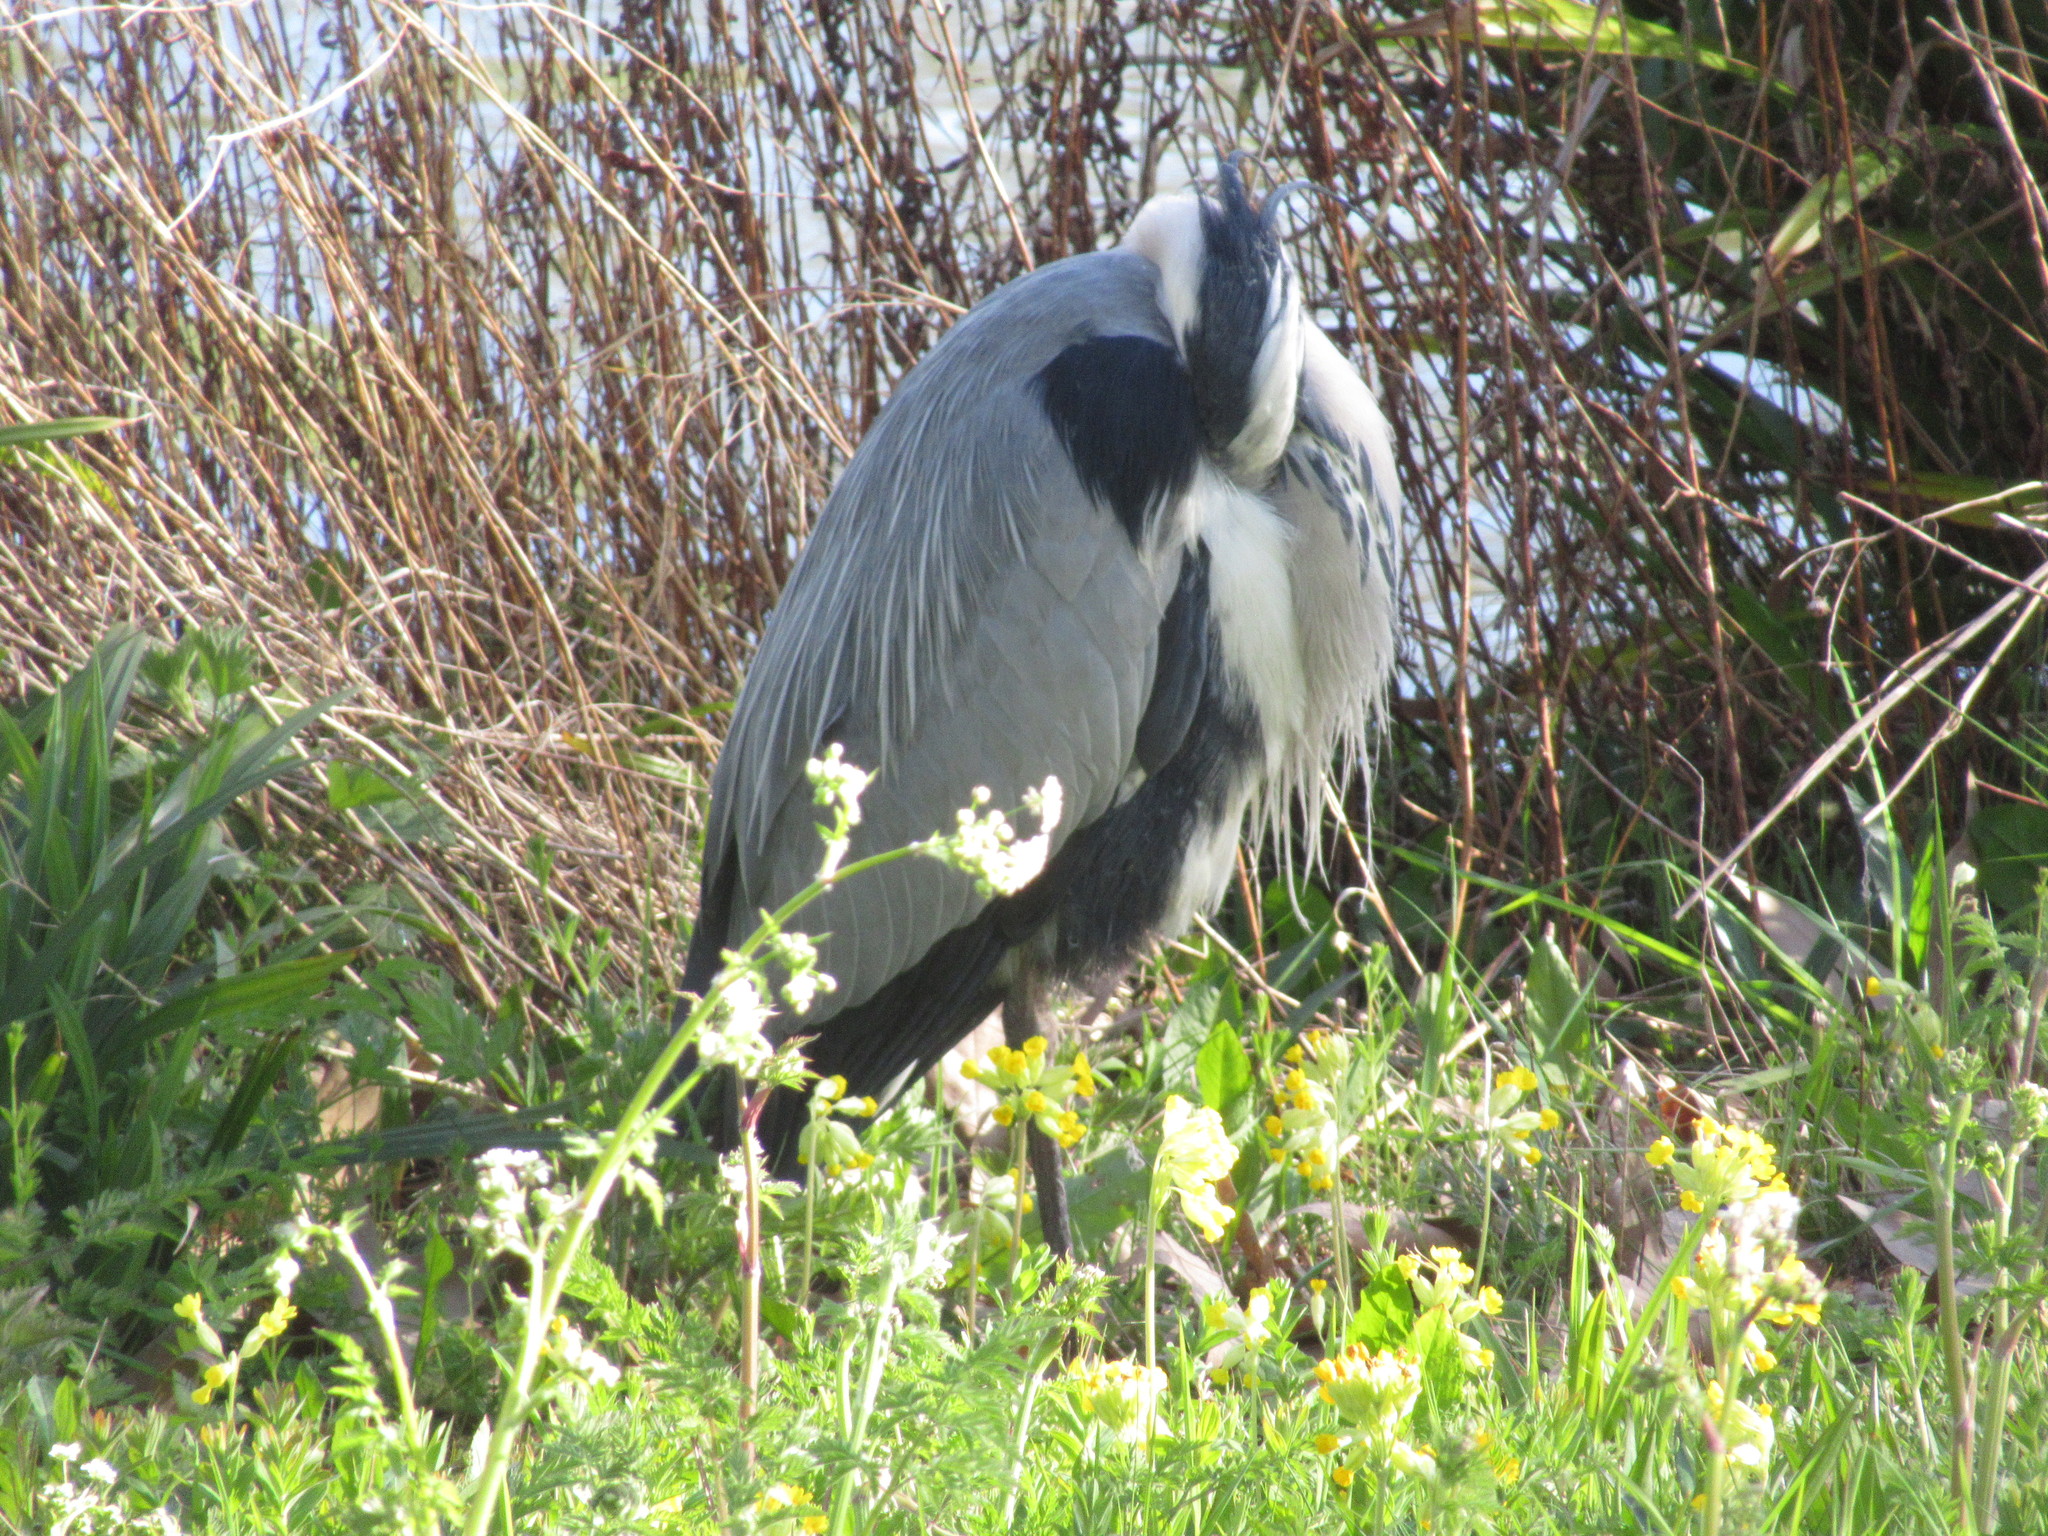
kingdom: Animalia
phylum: Chordata
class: Aves
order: Pelecaniformes
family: Ardeidae
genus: Ardea
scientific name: Ardea cinerea
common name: Grey heron
